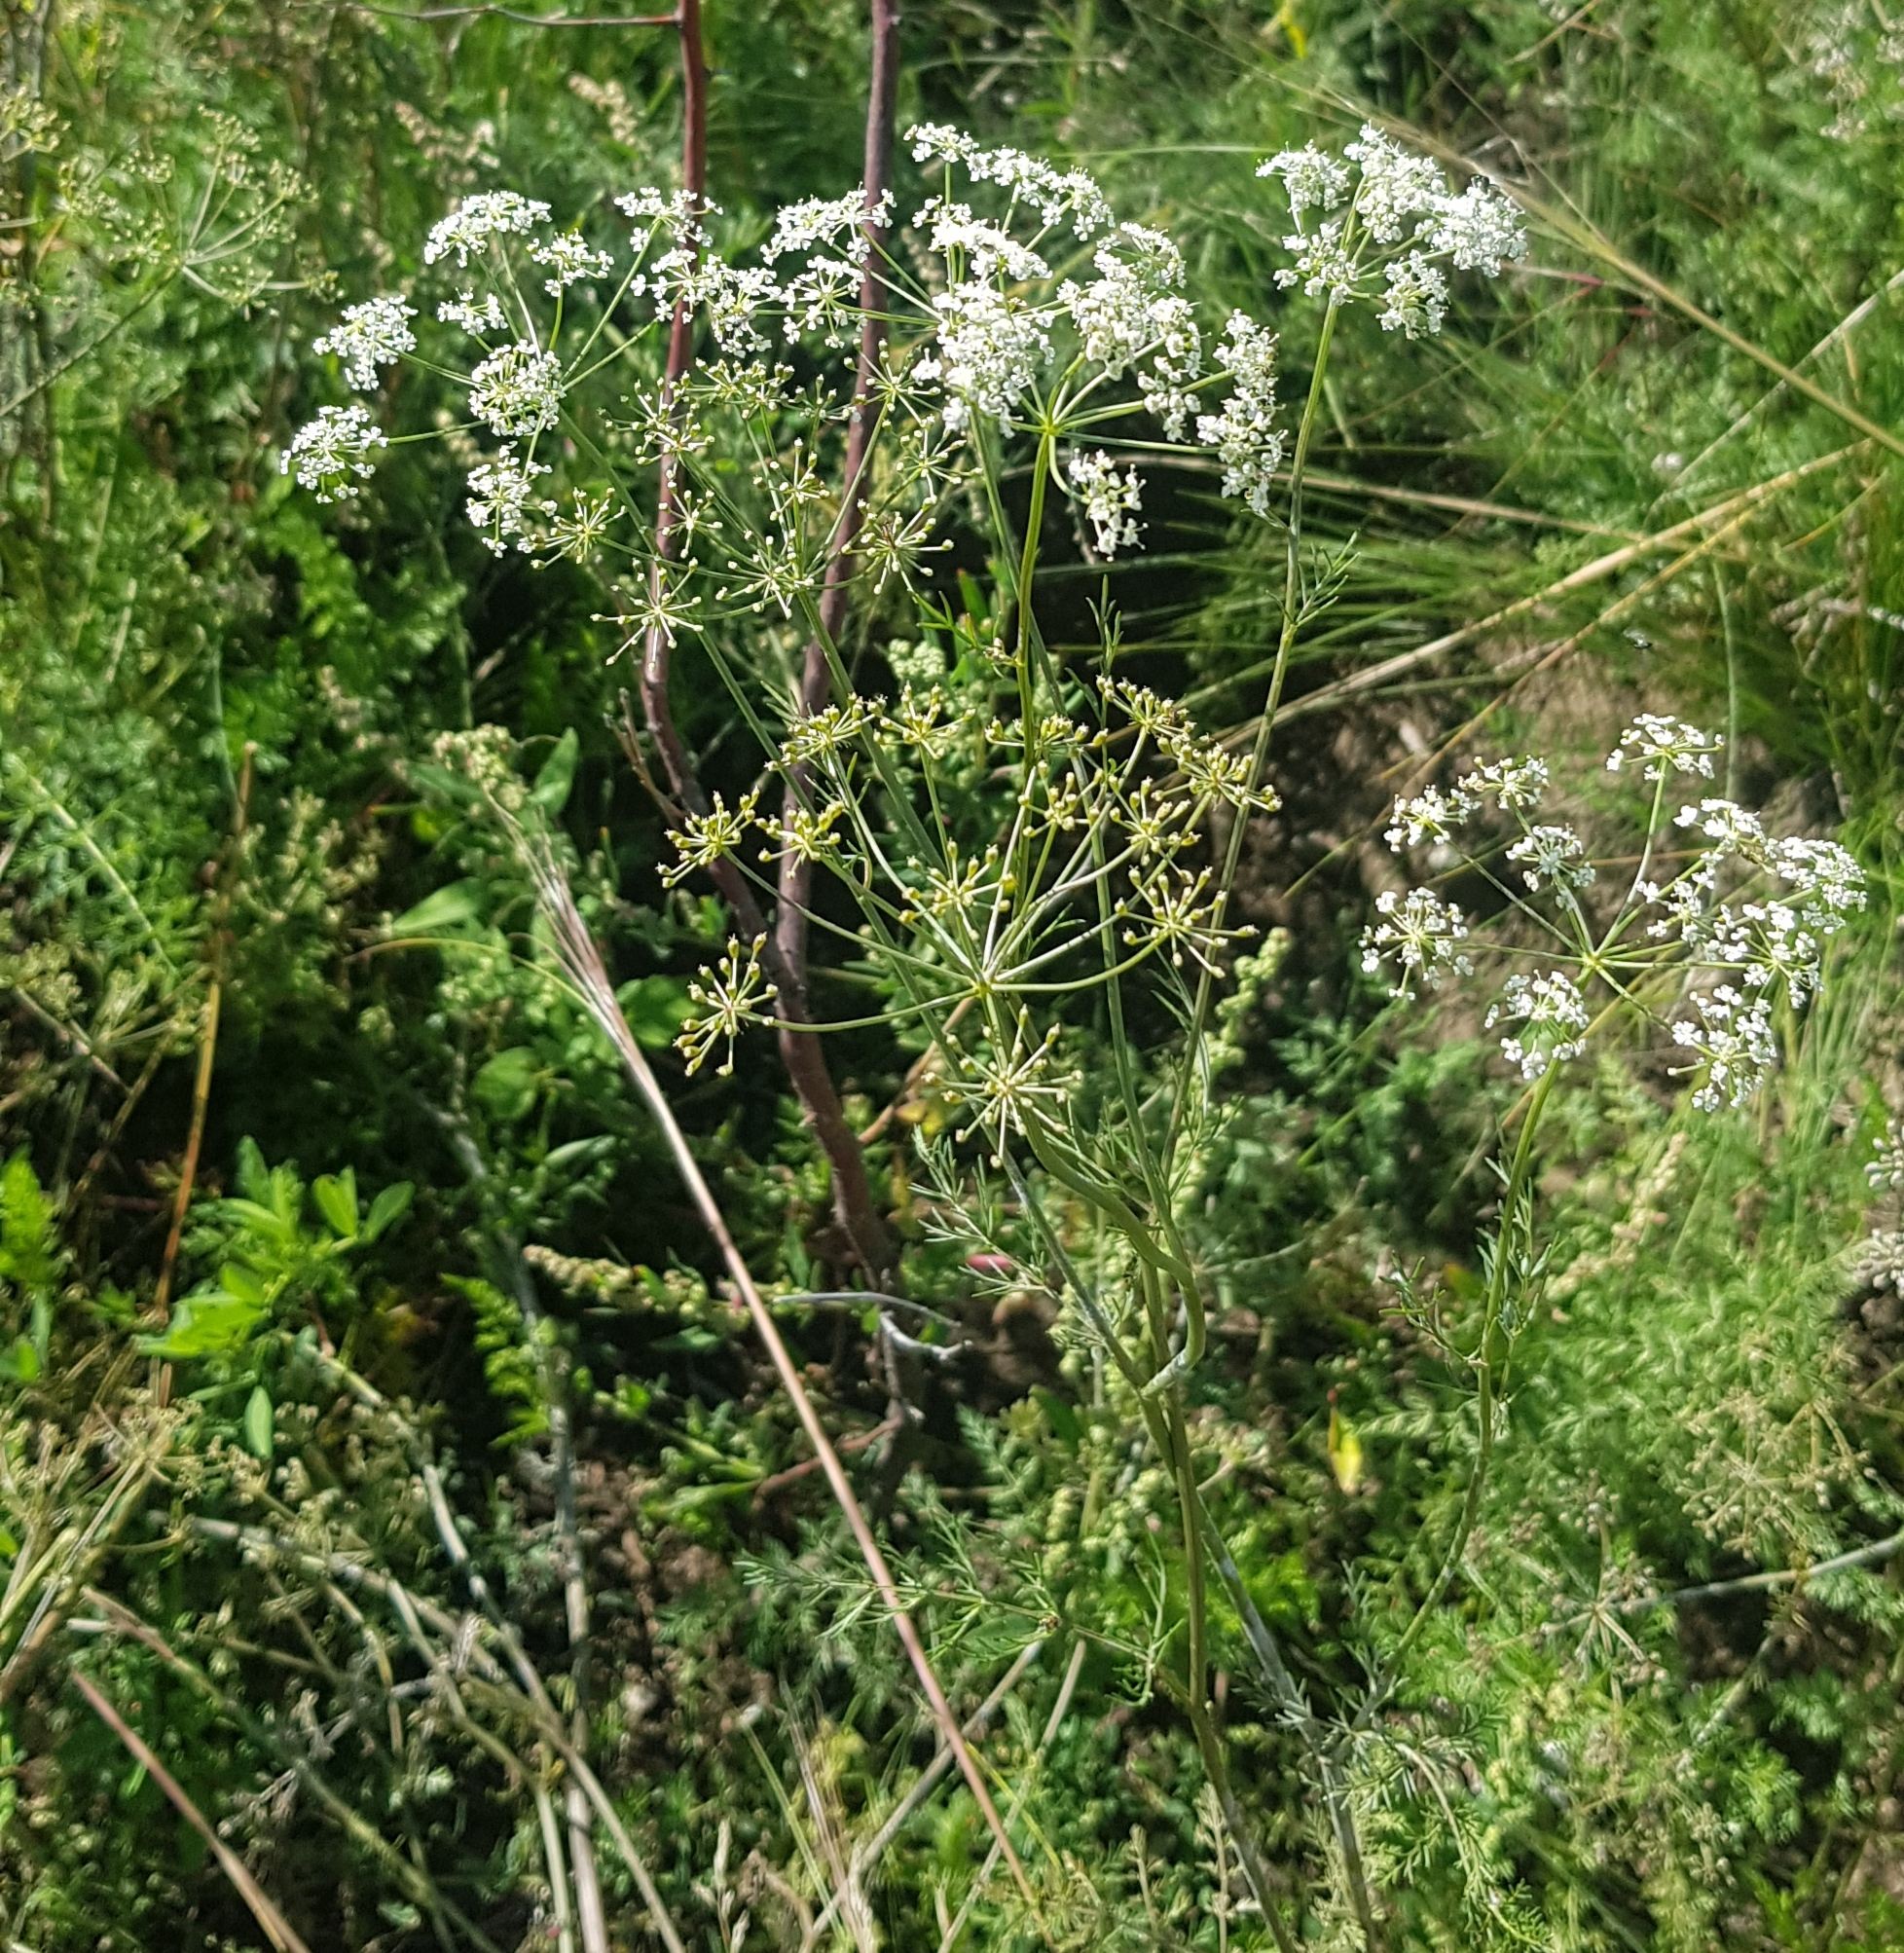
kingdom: Plantae
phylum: Tracheophyta
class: Magnoliopsida
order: Apiales
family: Apiaceae
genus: Carum
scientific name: Carum buriaticum
